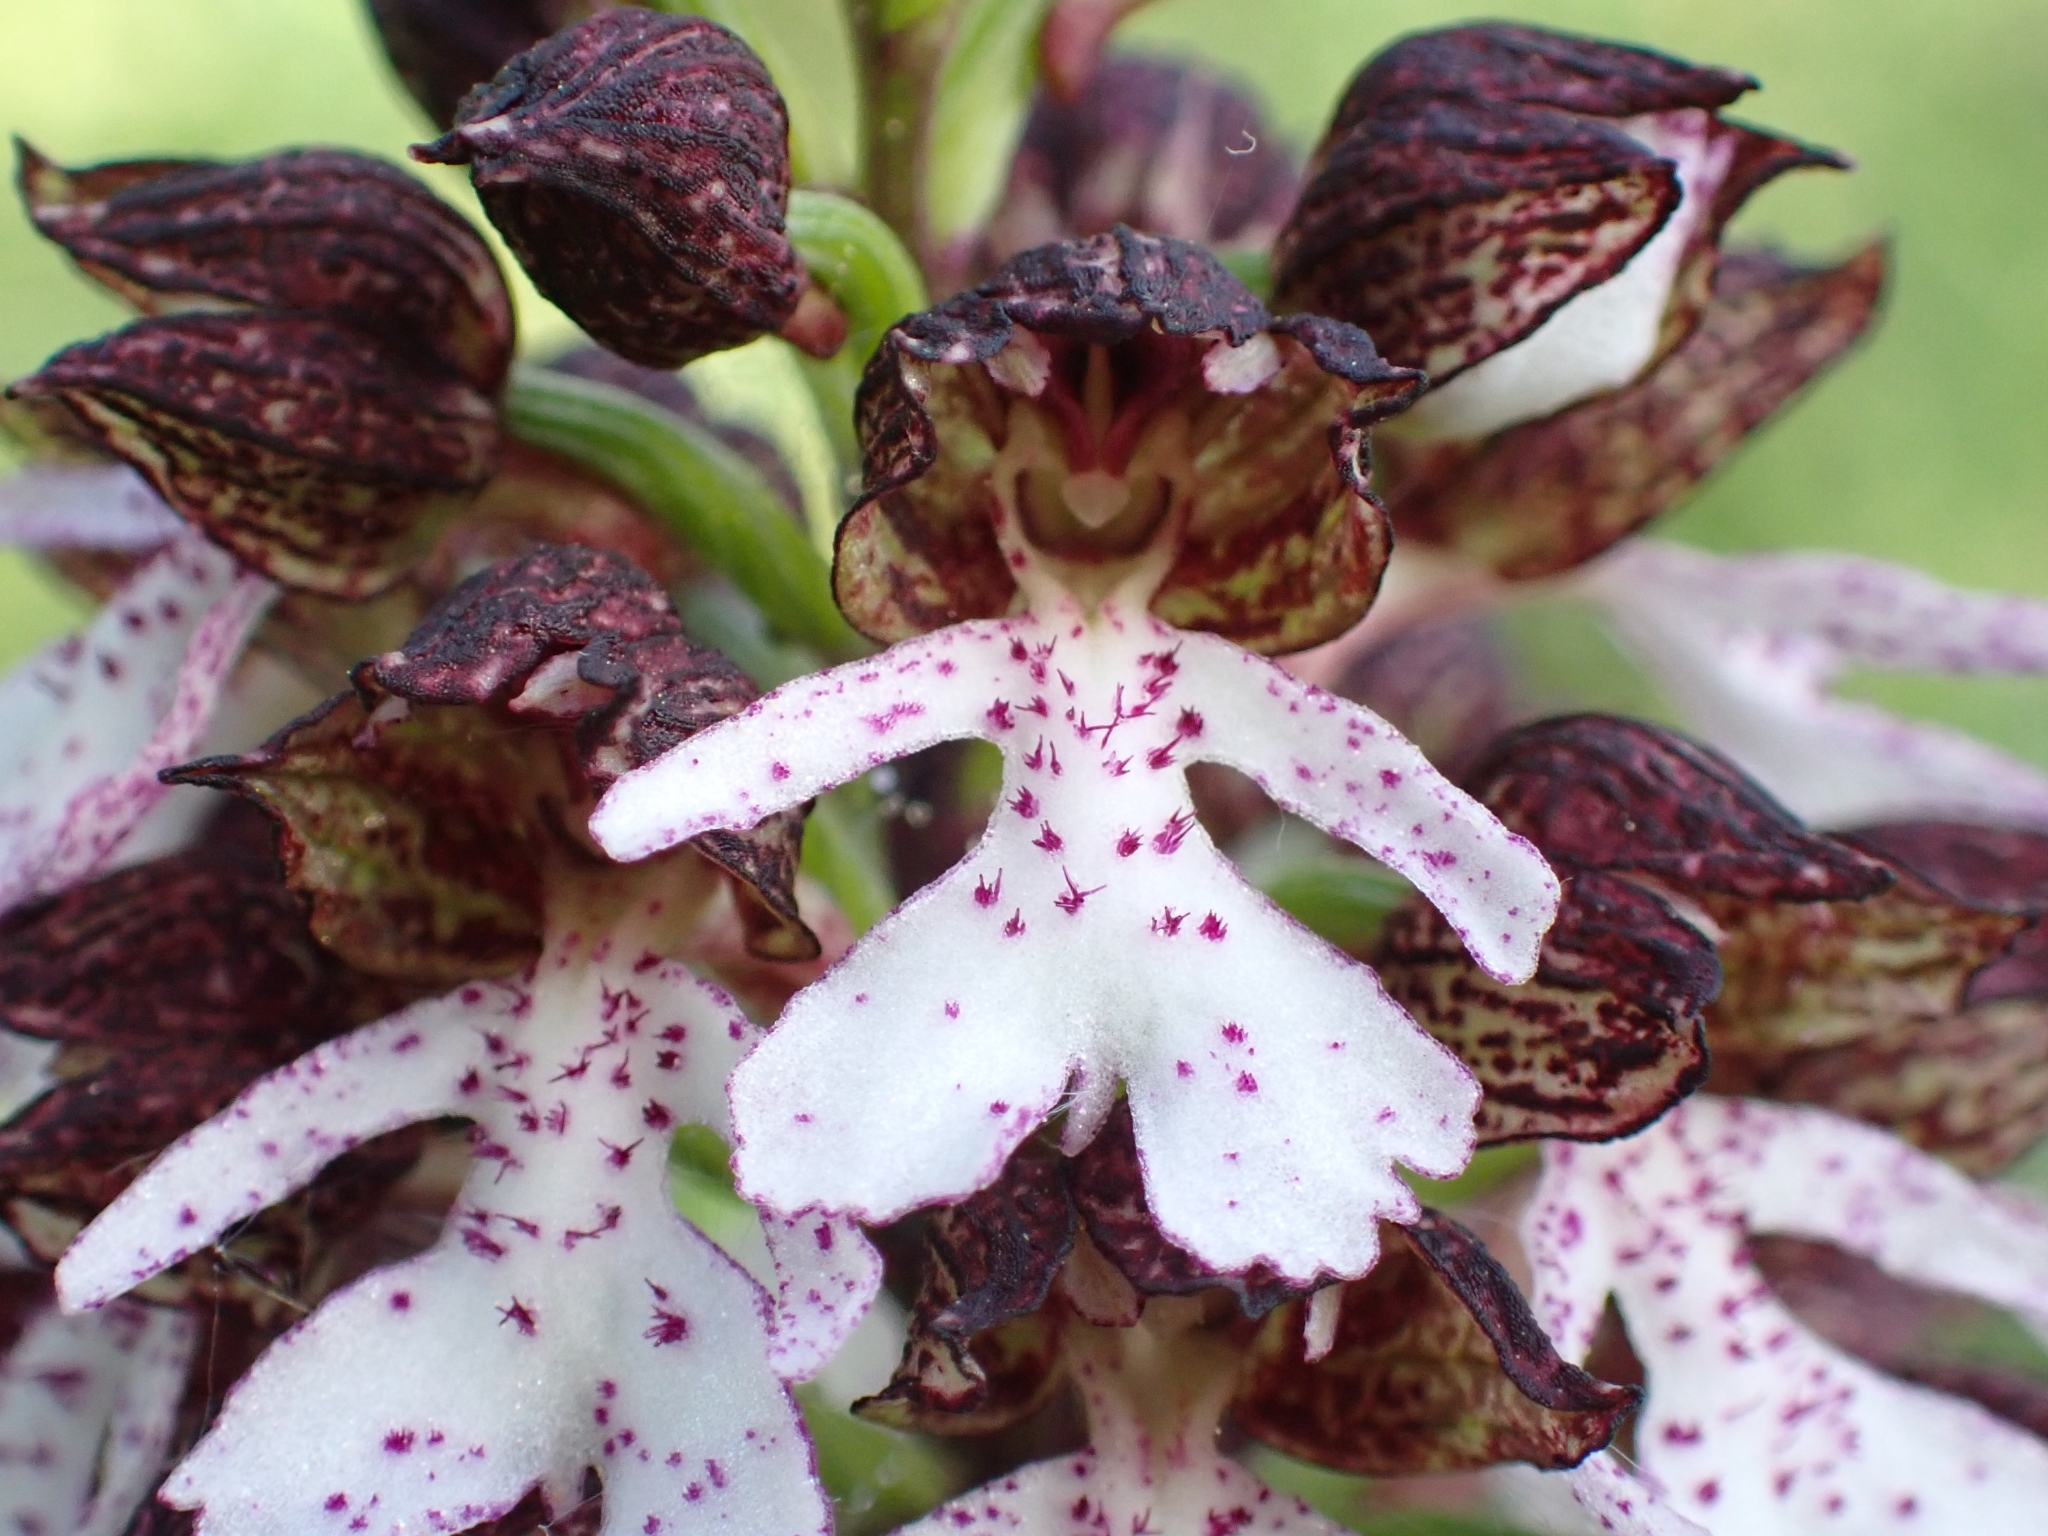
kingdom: Plantae
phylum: Tracheophyta
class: Liliopsida
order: Asparagales
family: Orchidaceae
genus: Orchis
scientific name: Orchis purpurea
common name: Lady orchid
